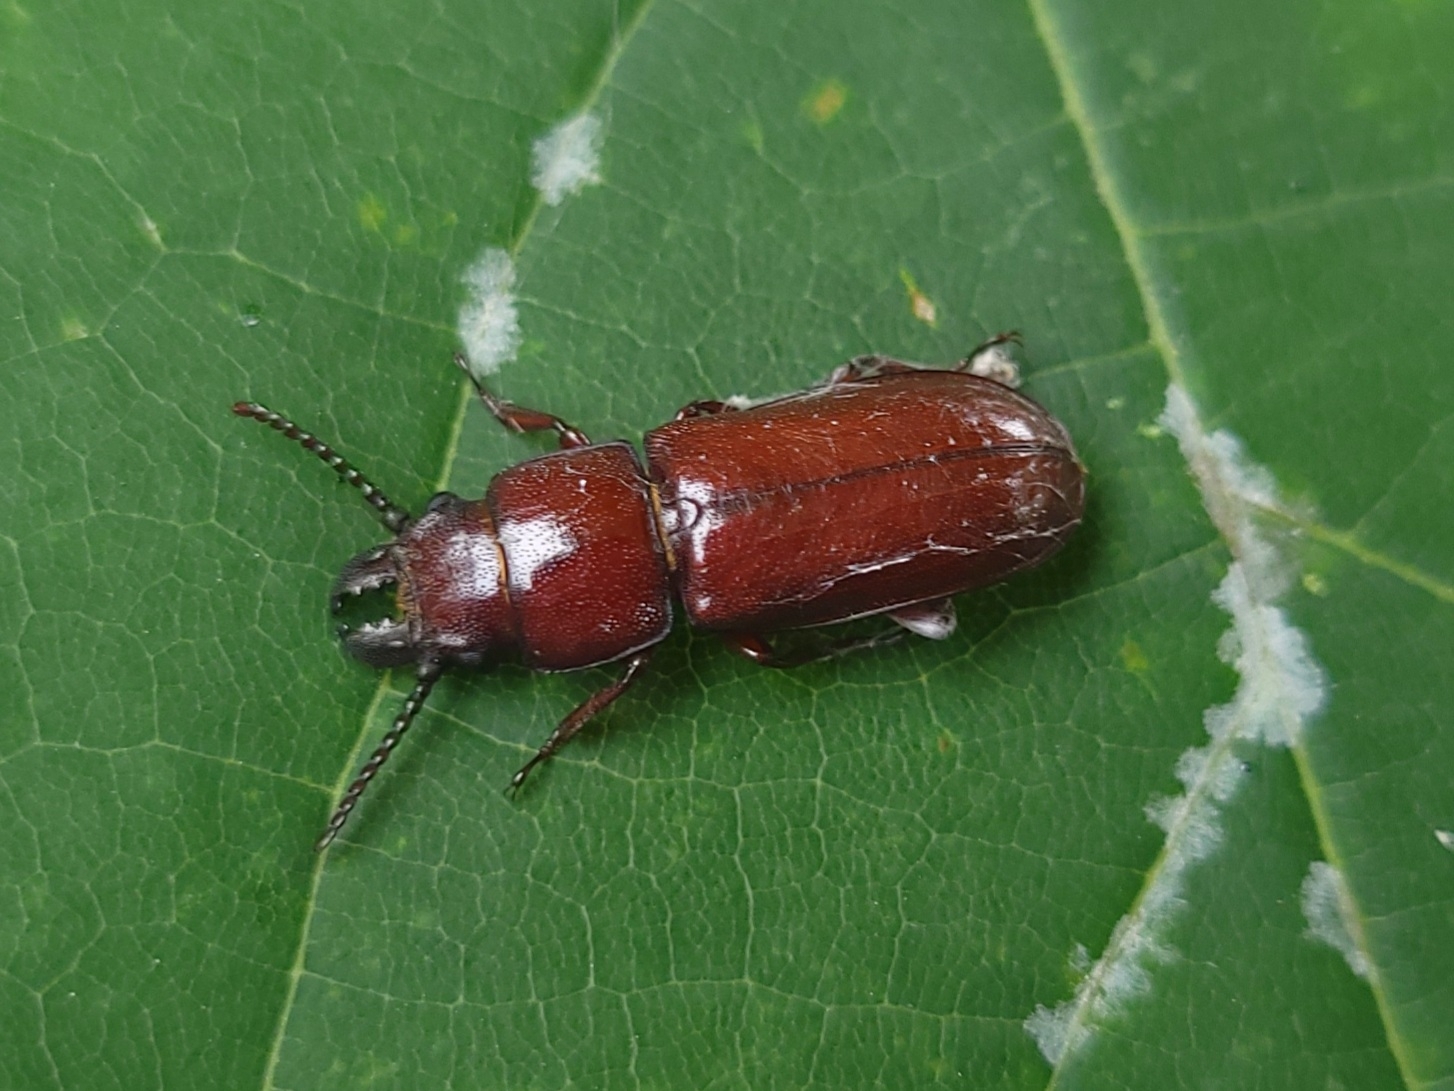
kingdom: Animalia
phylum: Arthropoda
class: Insecta
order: Coleoptera
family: Cerambycidae
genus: Neandra
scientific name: Neandra brunnea
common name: Pole borer
